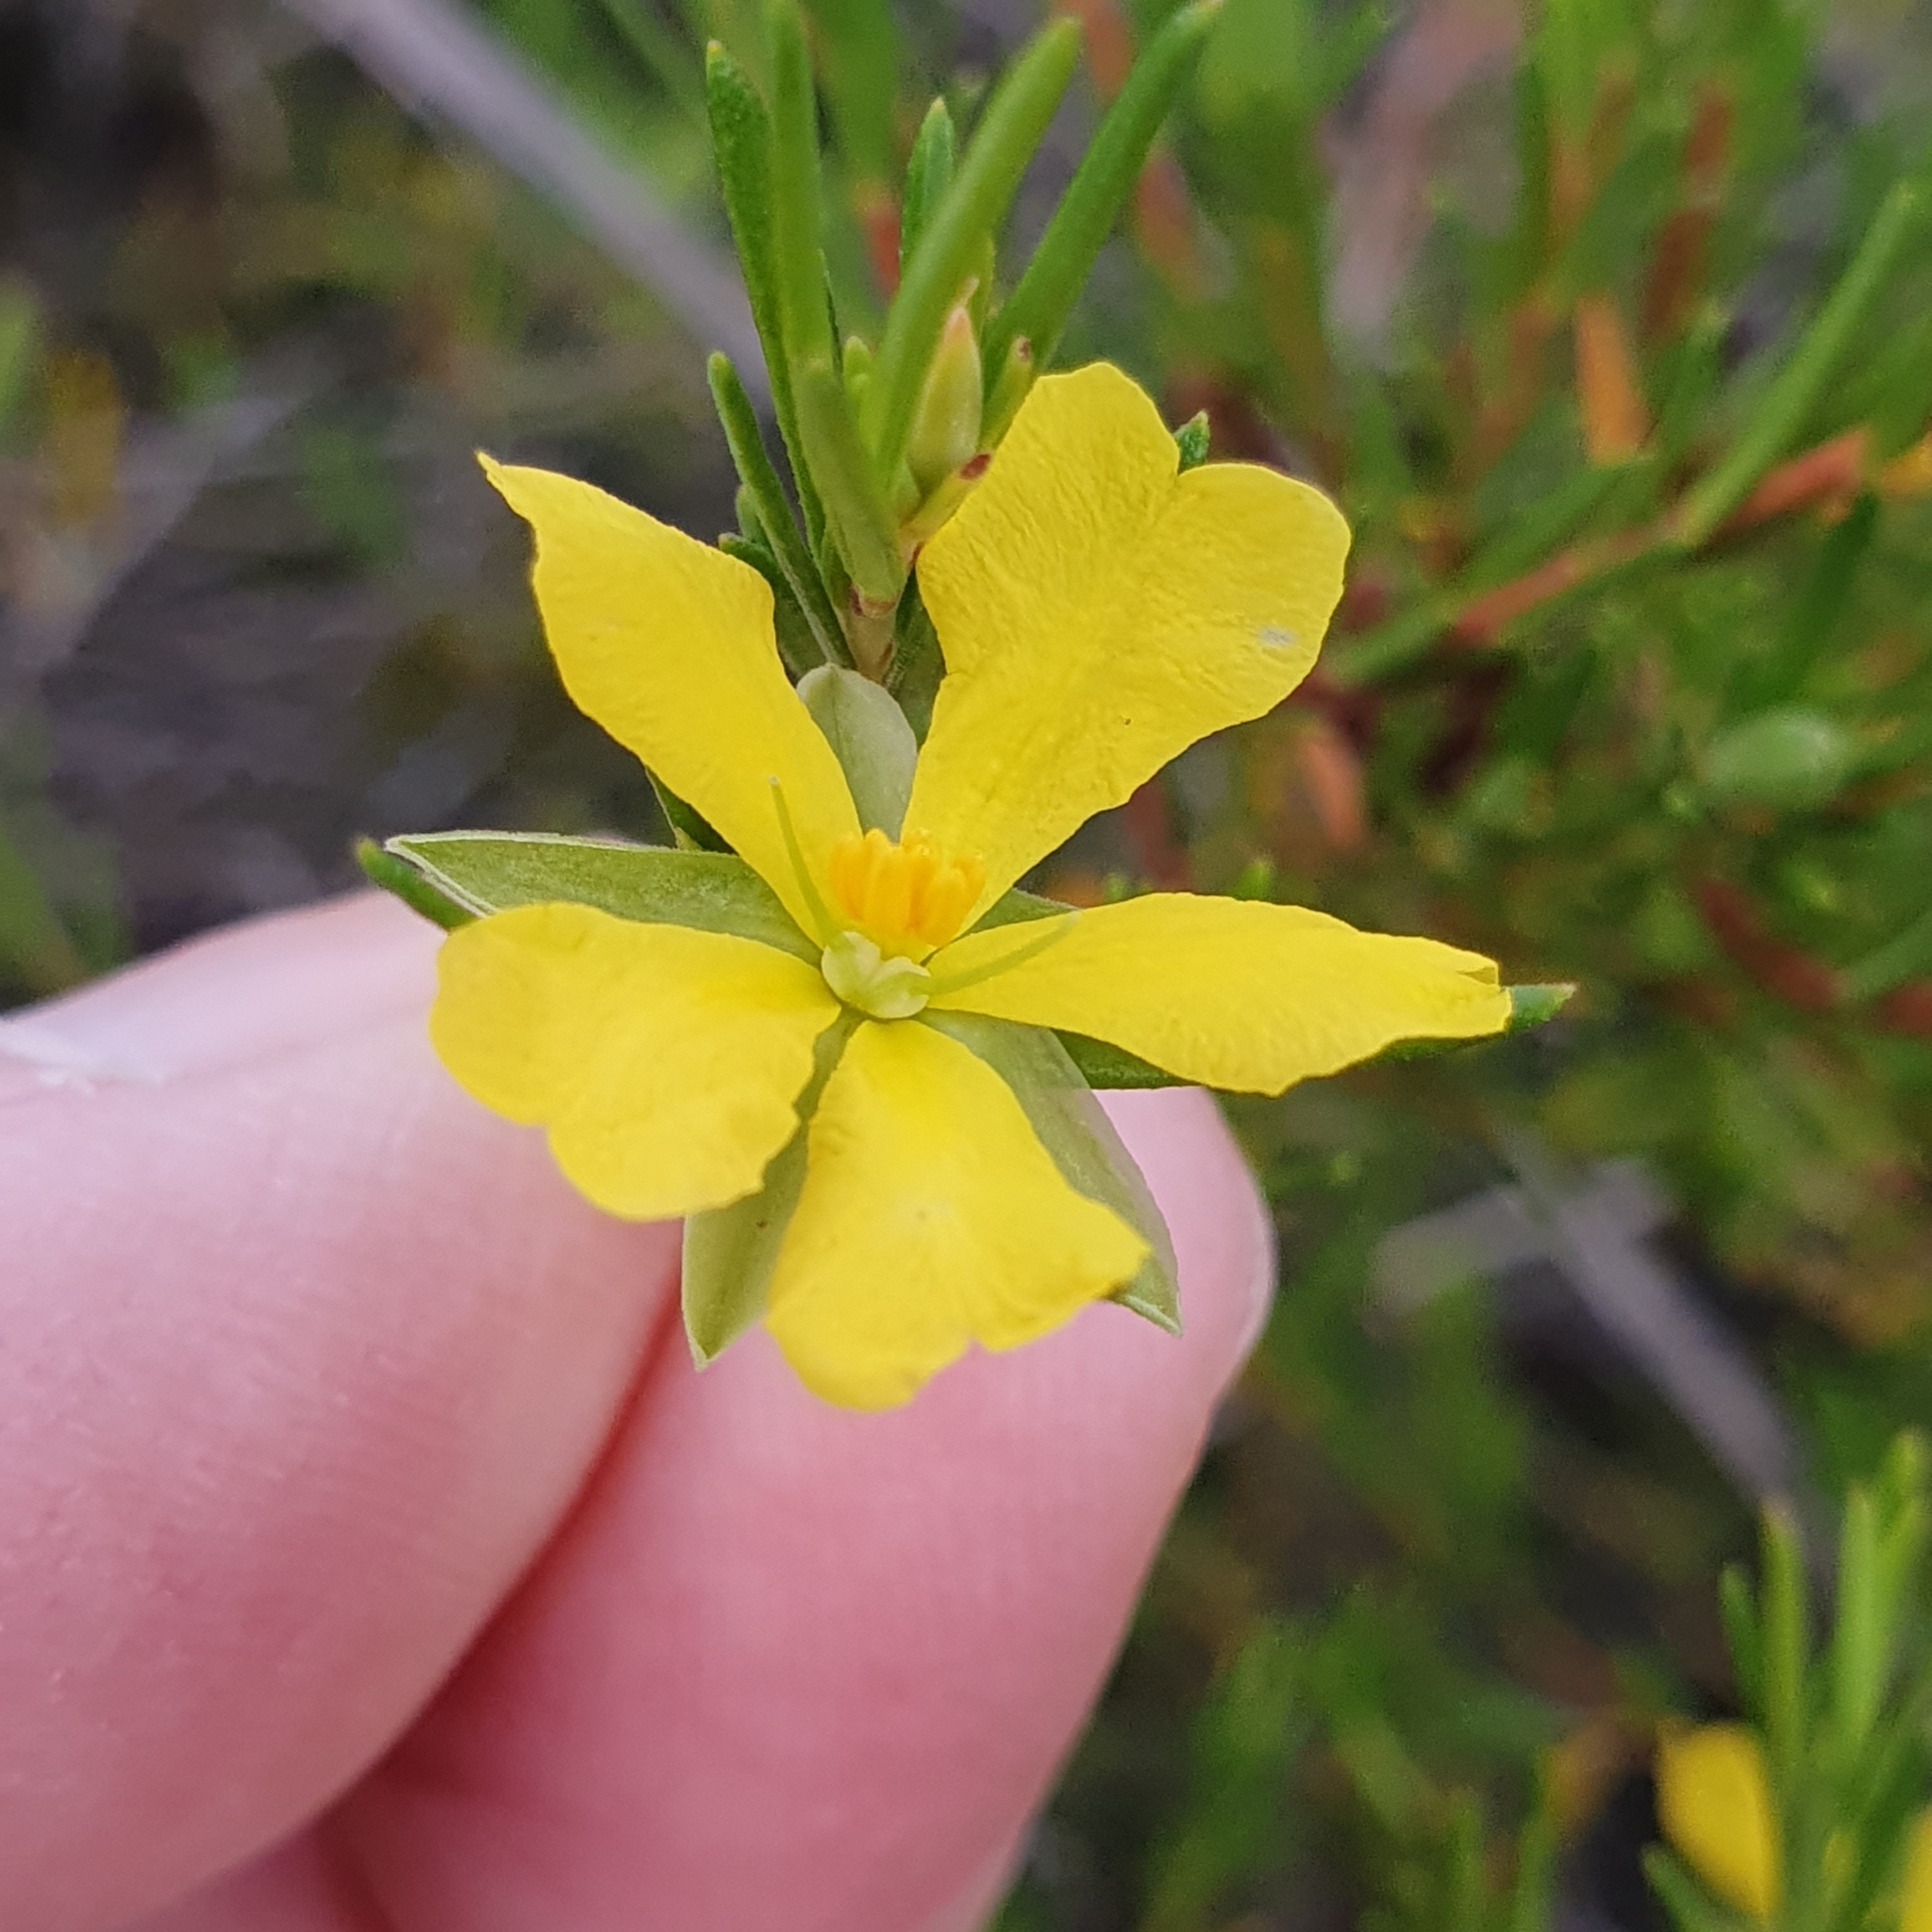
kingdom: Plantae
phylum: Tracheophyta
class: Magnoliopsida
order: Dilleniales
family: Dilleniaceae
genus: Hibbertia
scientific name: Hibbertia stricta
